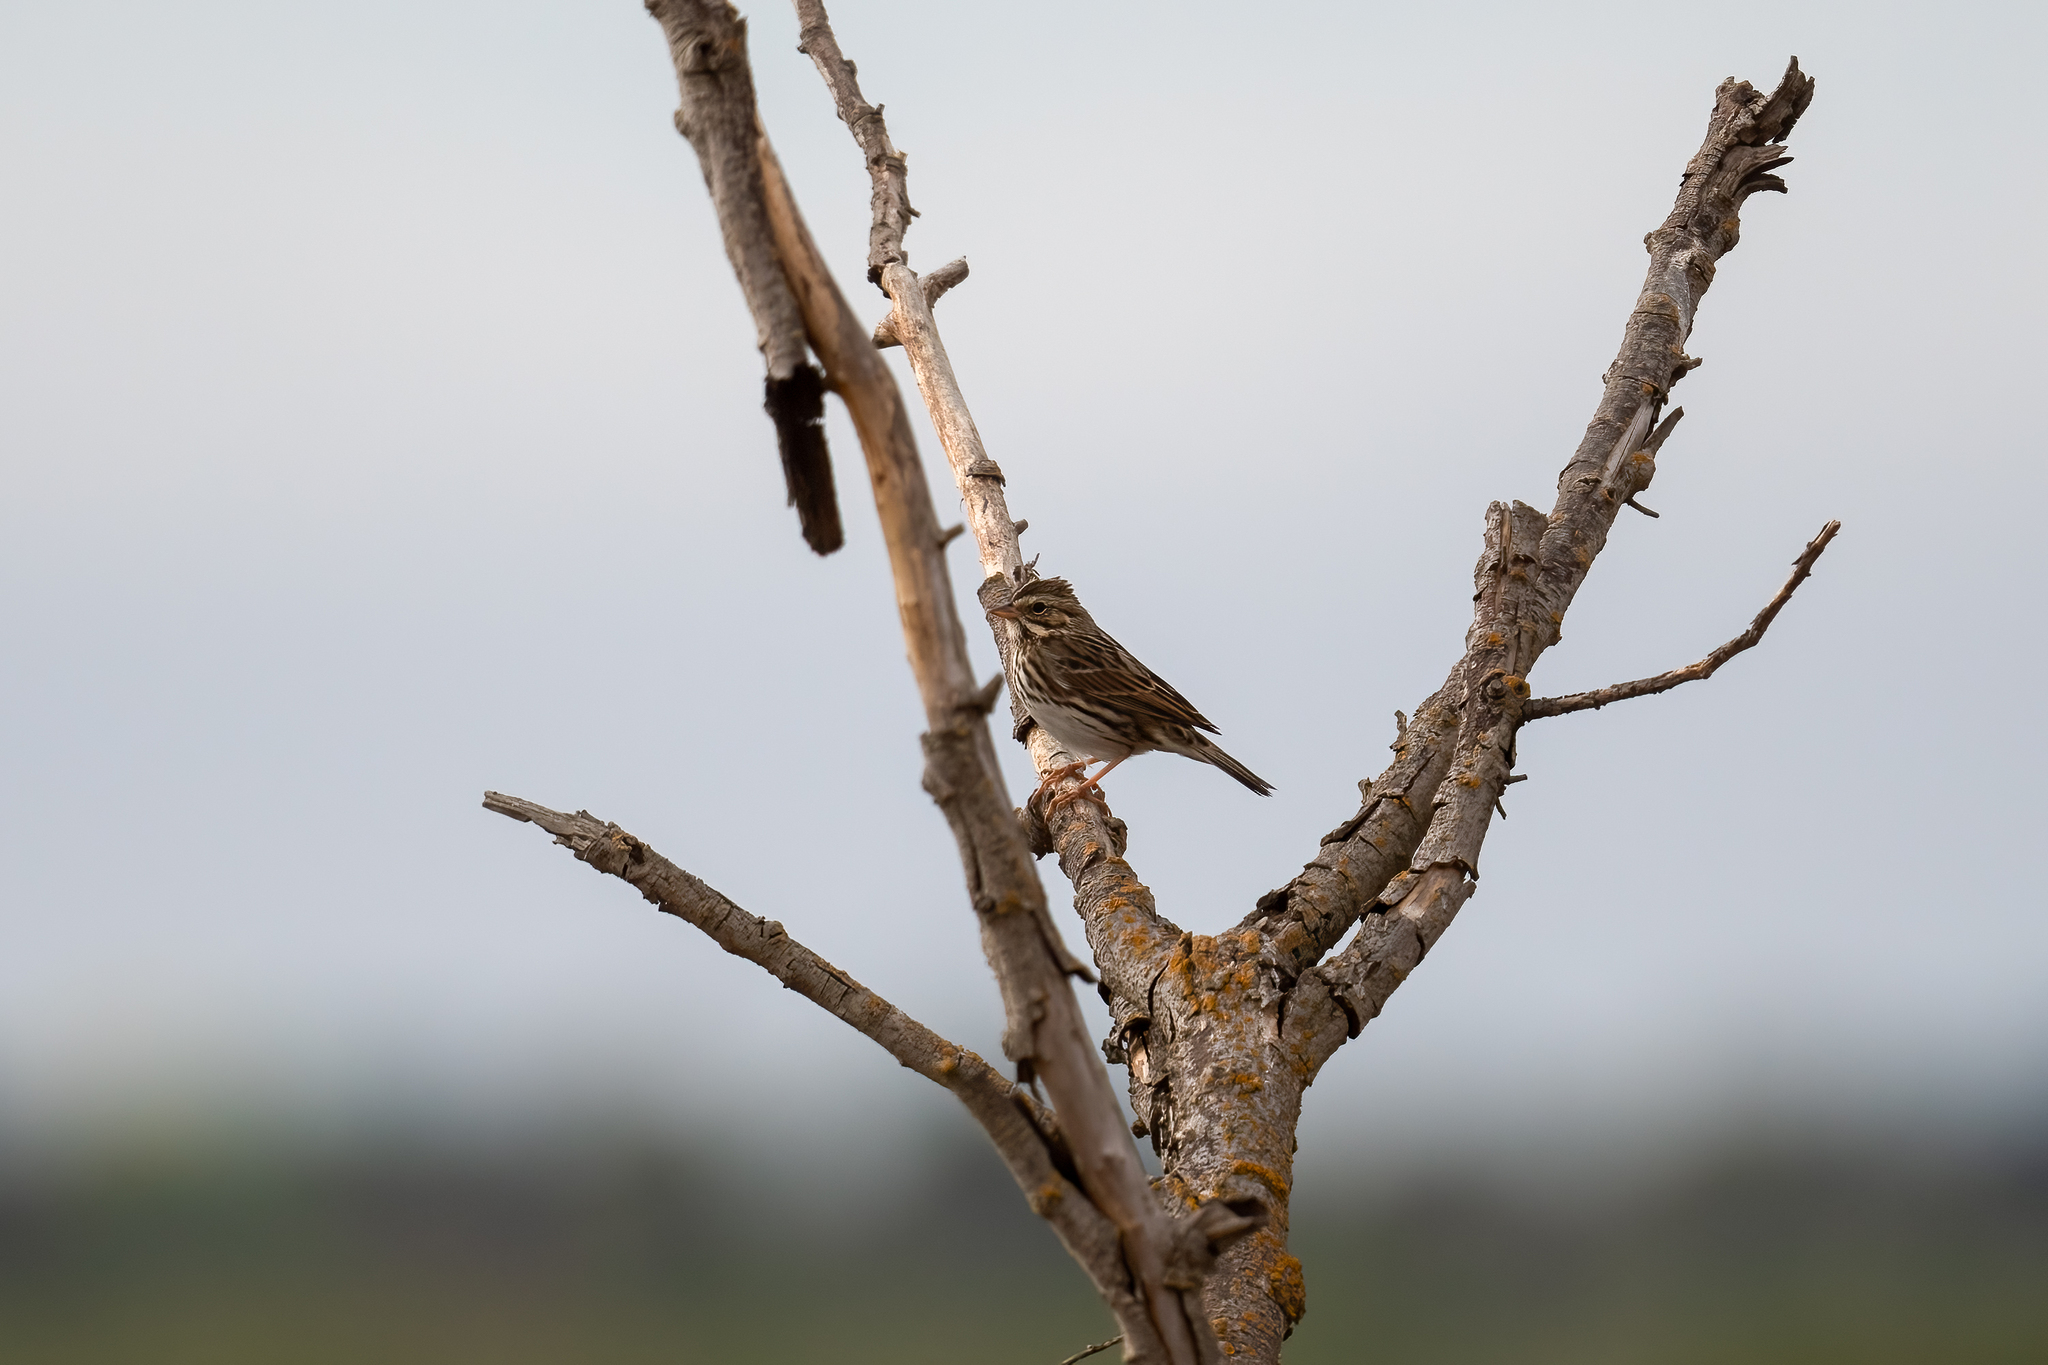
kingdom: Animalia
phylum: Chordata
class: Aves
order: Passeriformes
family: Passerellidae
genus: Passerculus
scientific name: Passerculus sandwichensis
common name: Savannah sparrow
